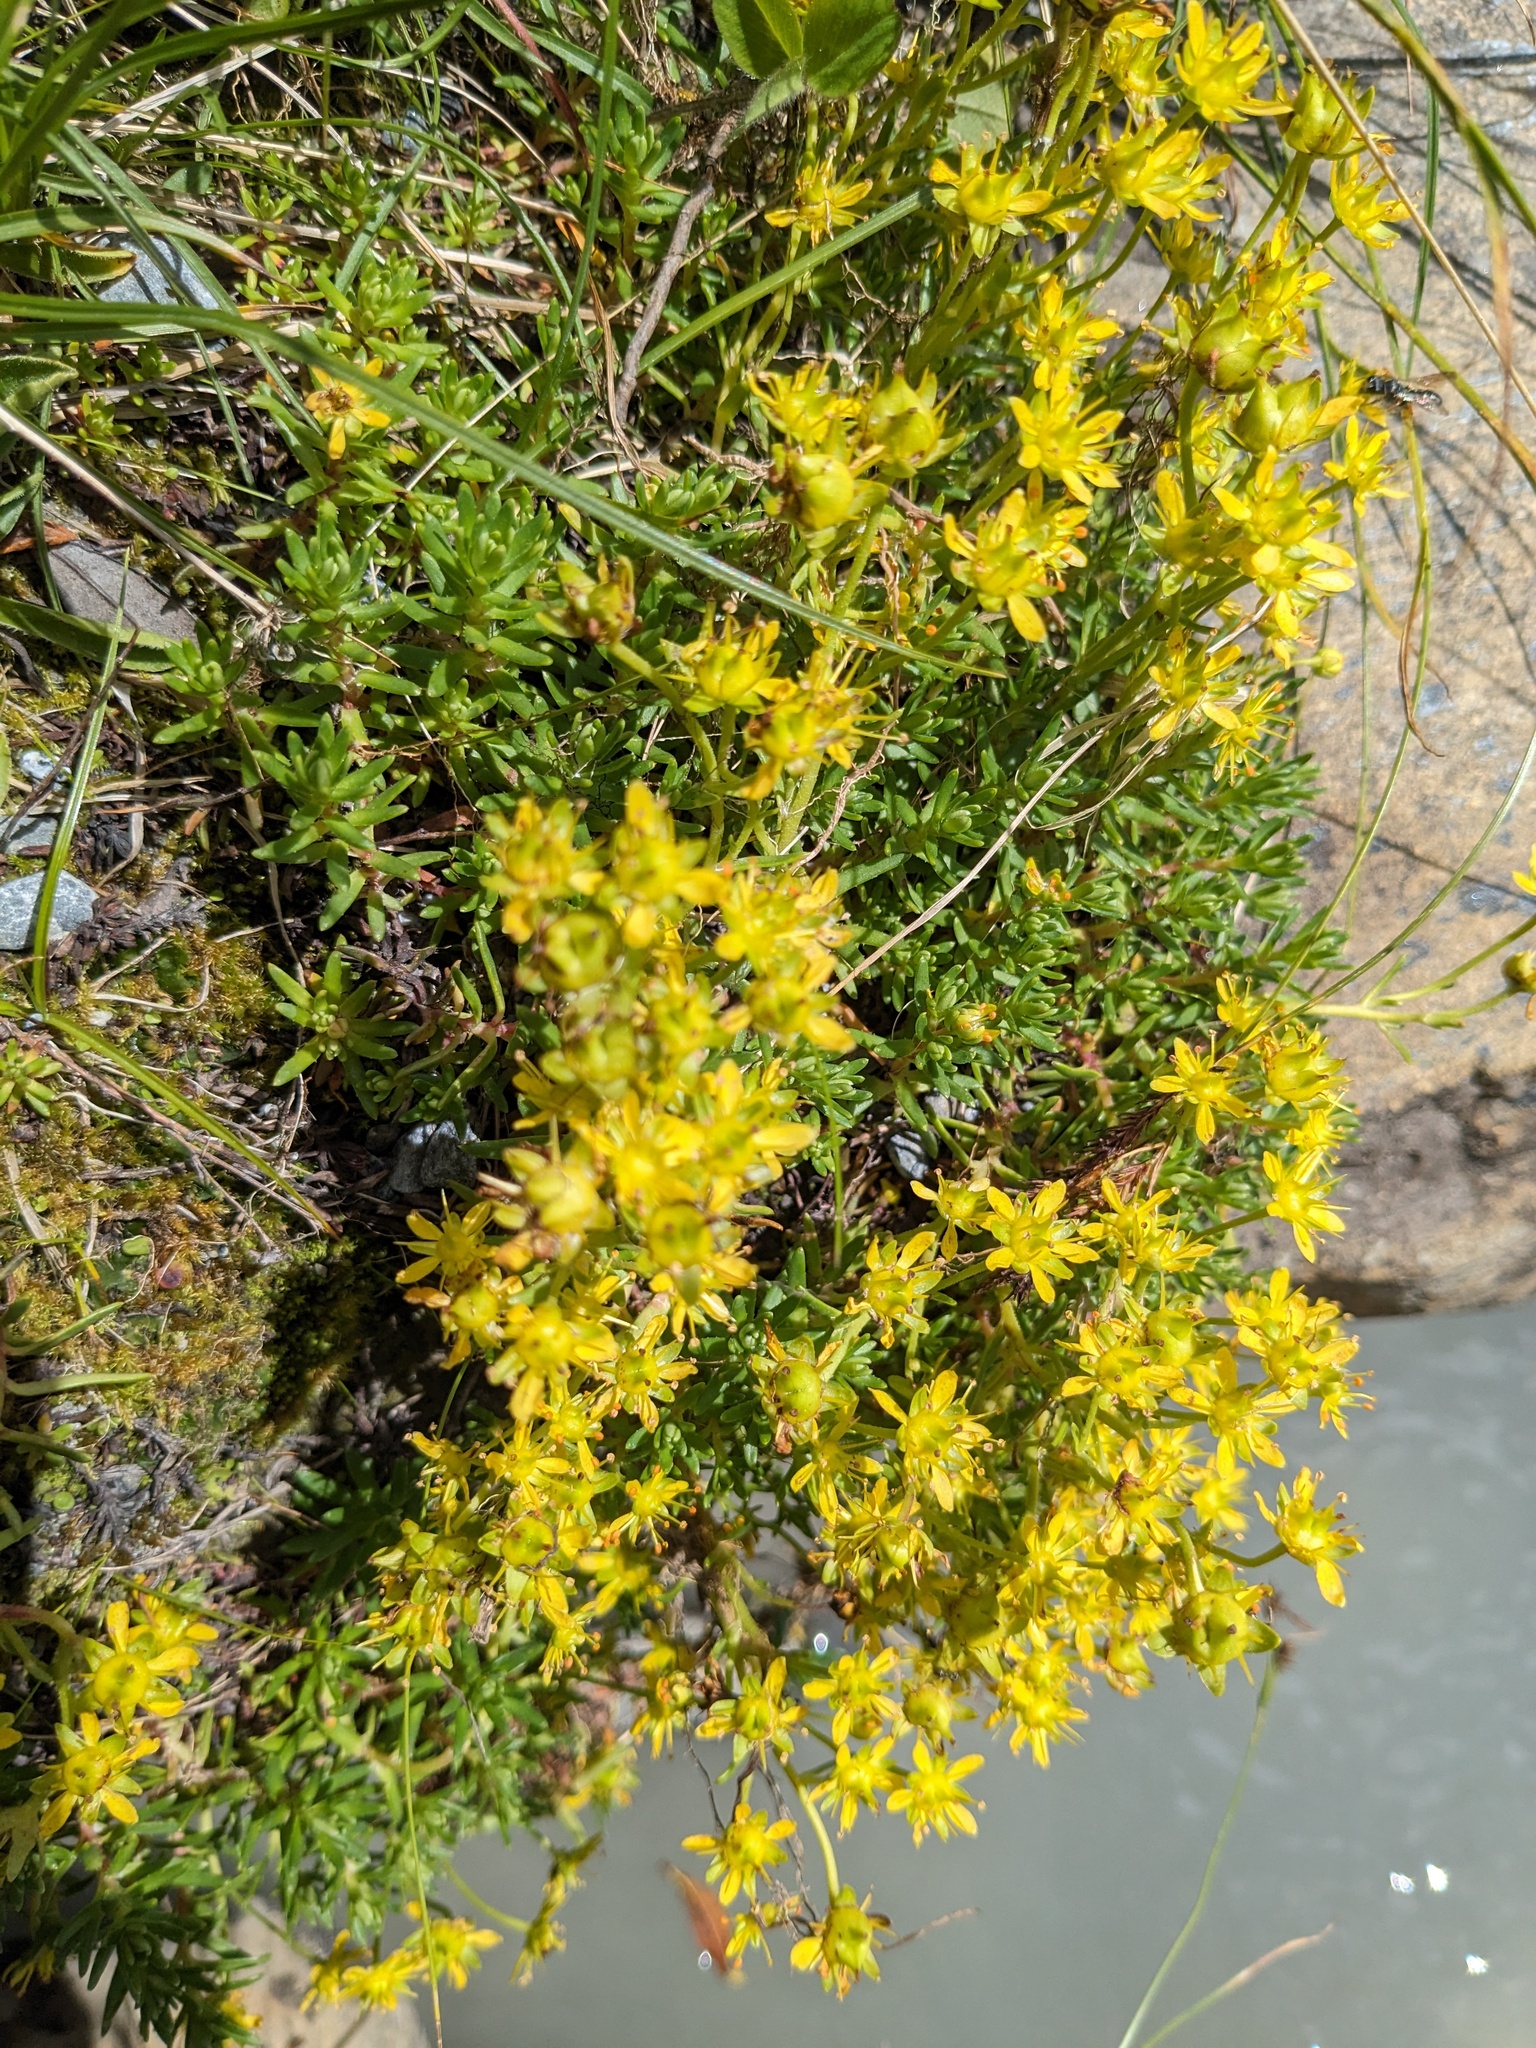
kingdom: Plantae
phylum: Tracheophyta
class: Magnoliopsida
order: Saxifragales
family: Saxifragaceae
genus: Saxifraga
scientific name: Saxifraga aizoides
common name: Yellow mountain saxifrage
